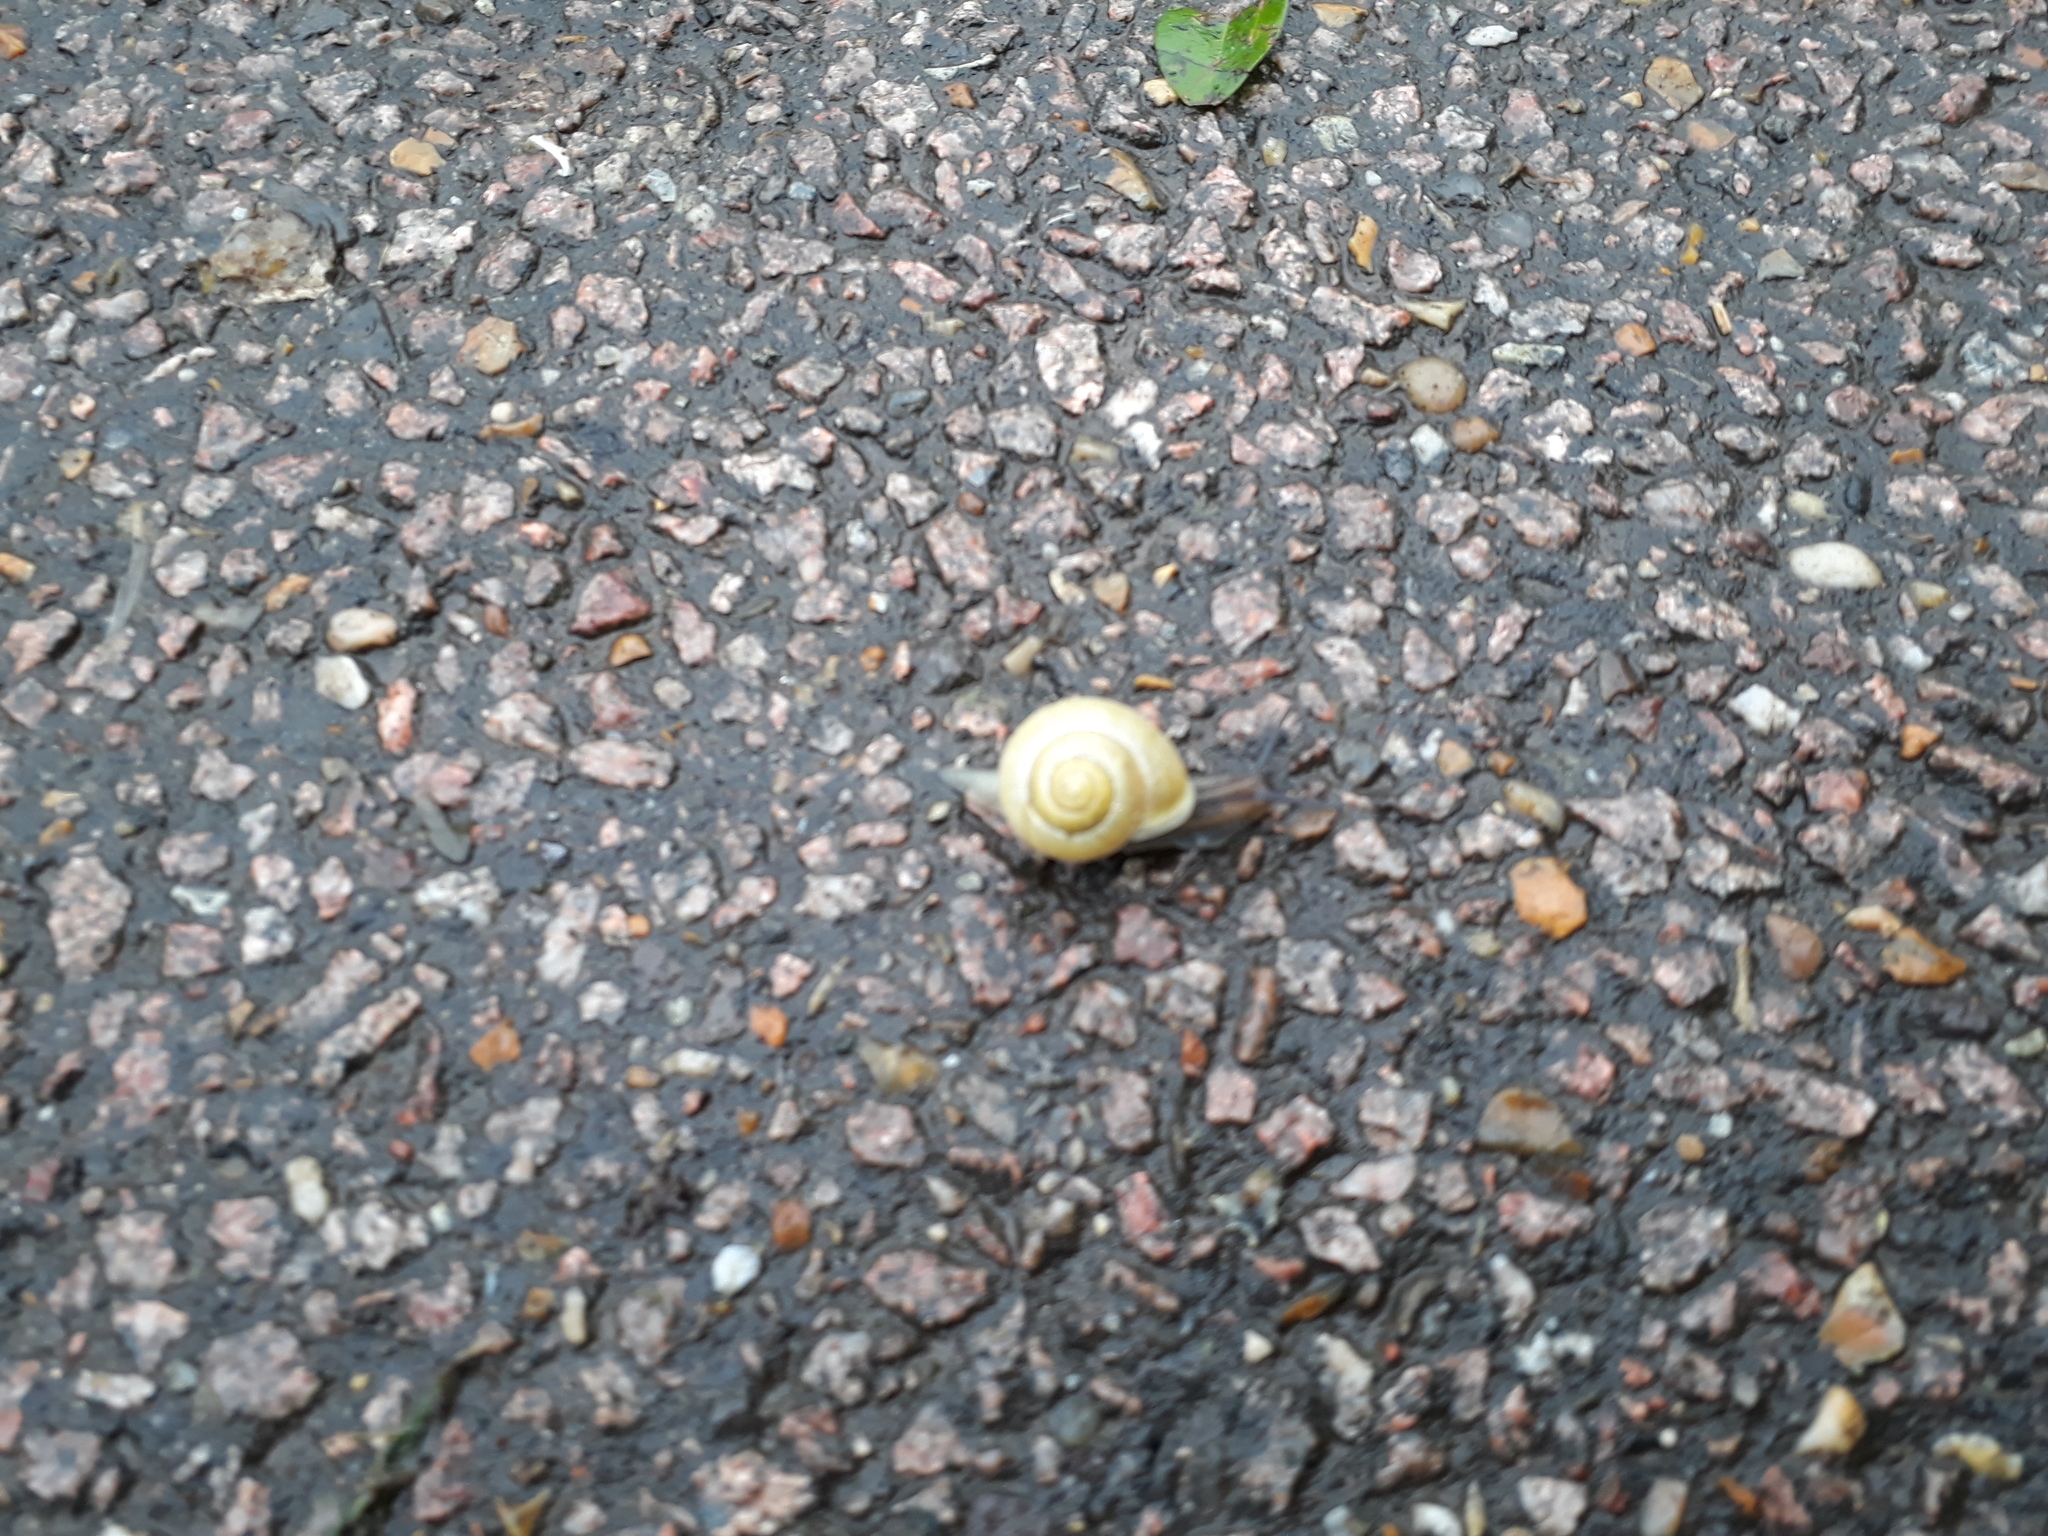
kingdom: Animalia
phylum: Mollusca
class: Gastropoda
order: Stylommatophora
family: Helicidae
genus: Cepaea
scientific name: Cepaea hortensis
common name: White-lip gardensnail
